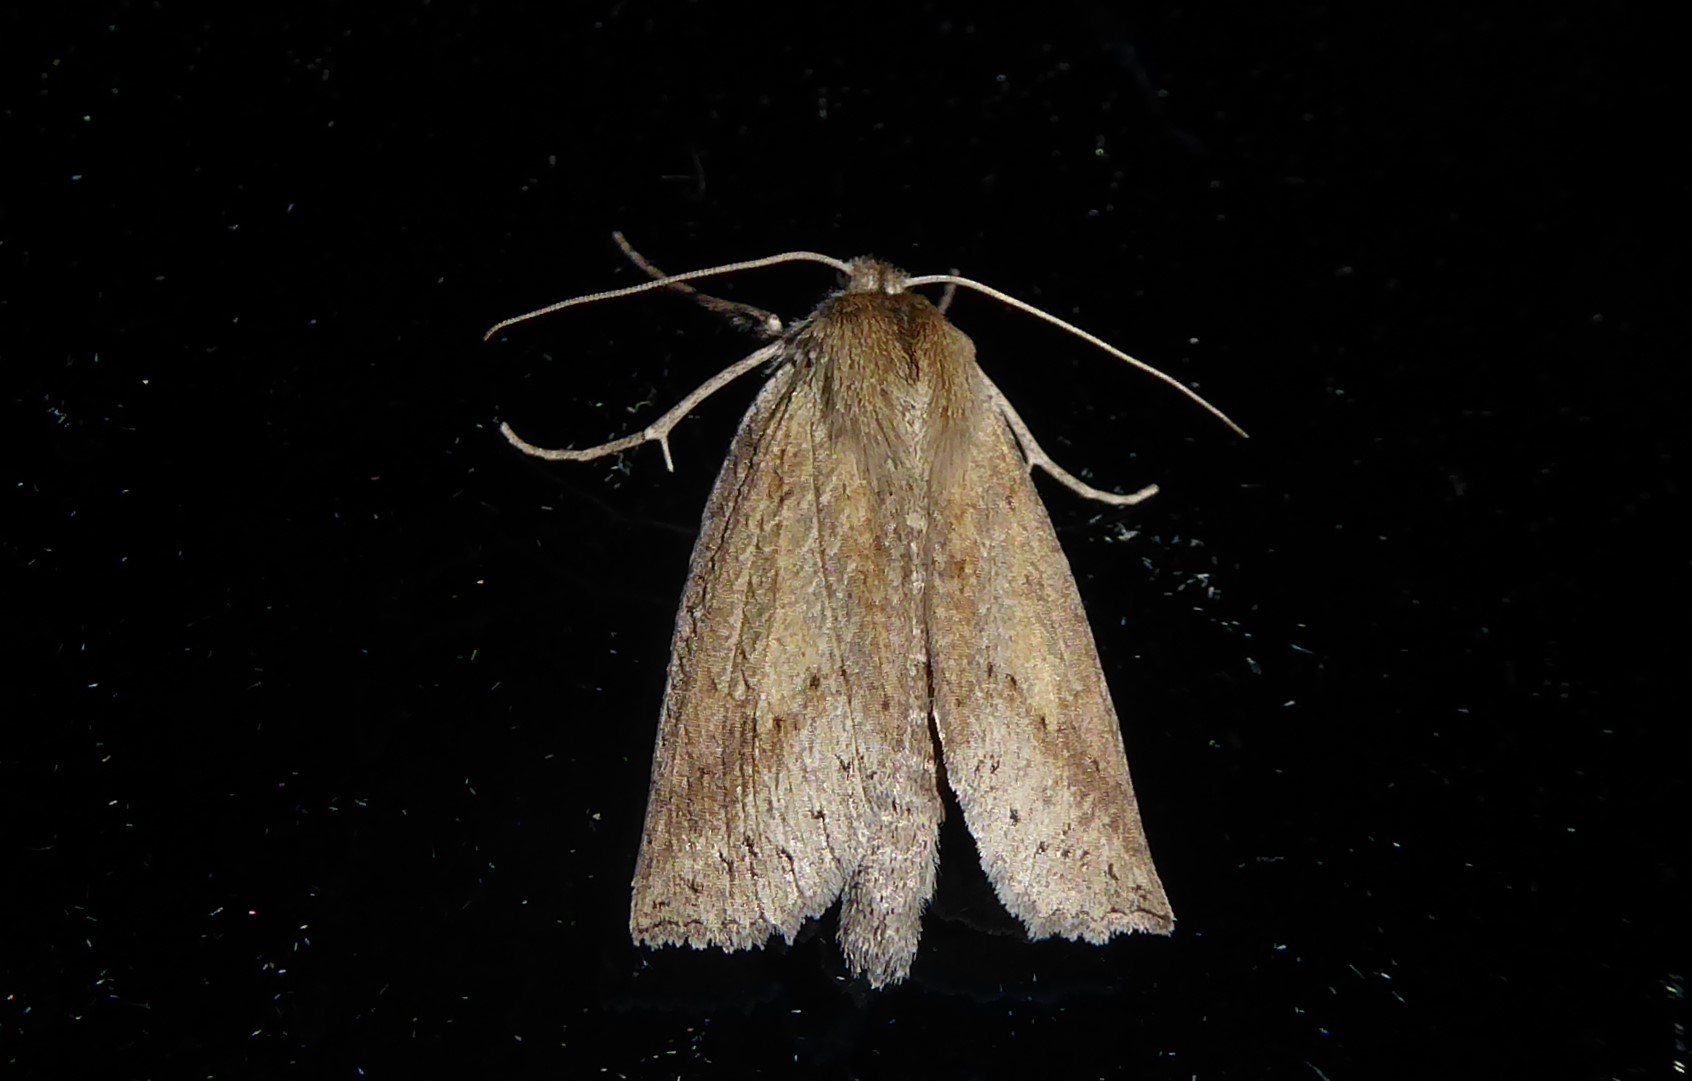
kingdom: Animalia
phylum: Arthropoda
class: Insecta
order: Lepidoptera
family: Geometridae
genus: Declana
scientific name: Declana leptomera
